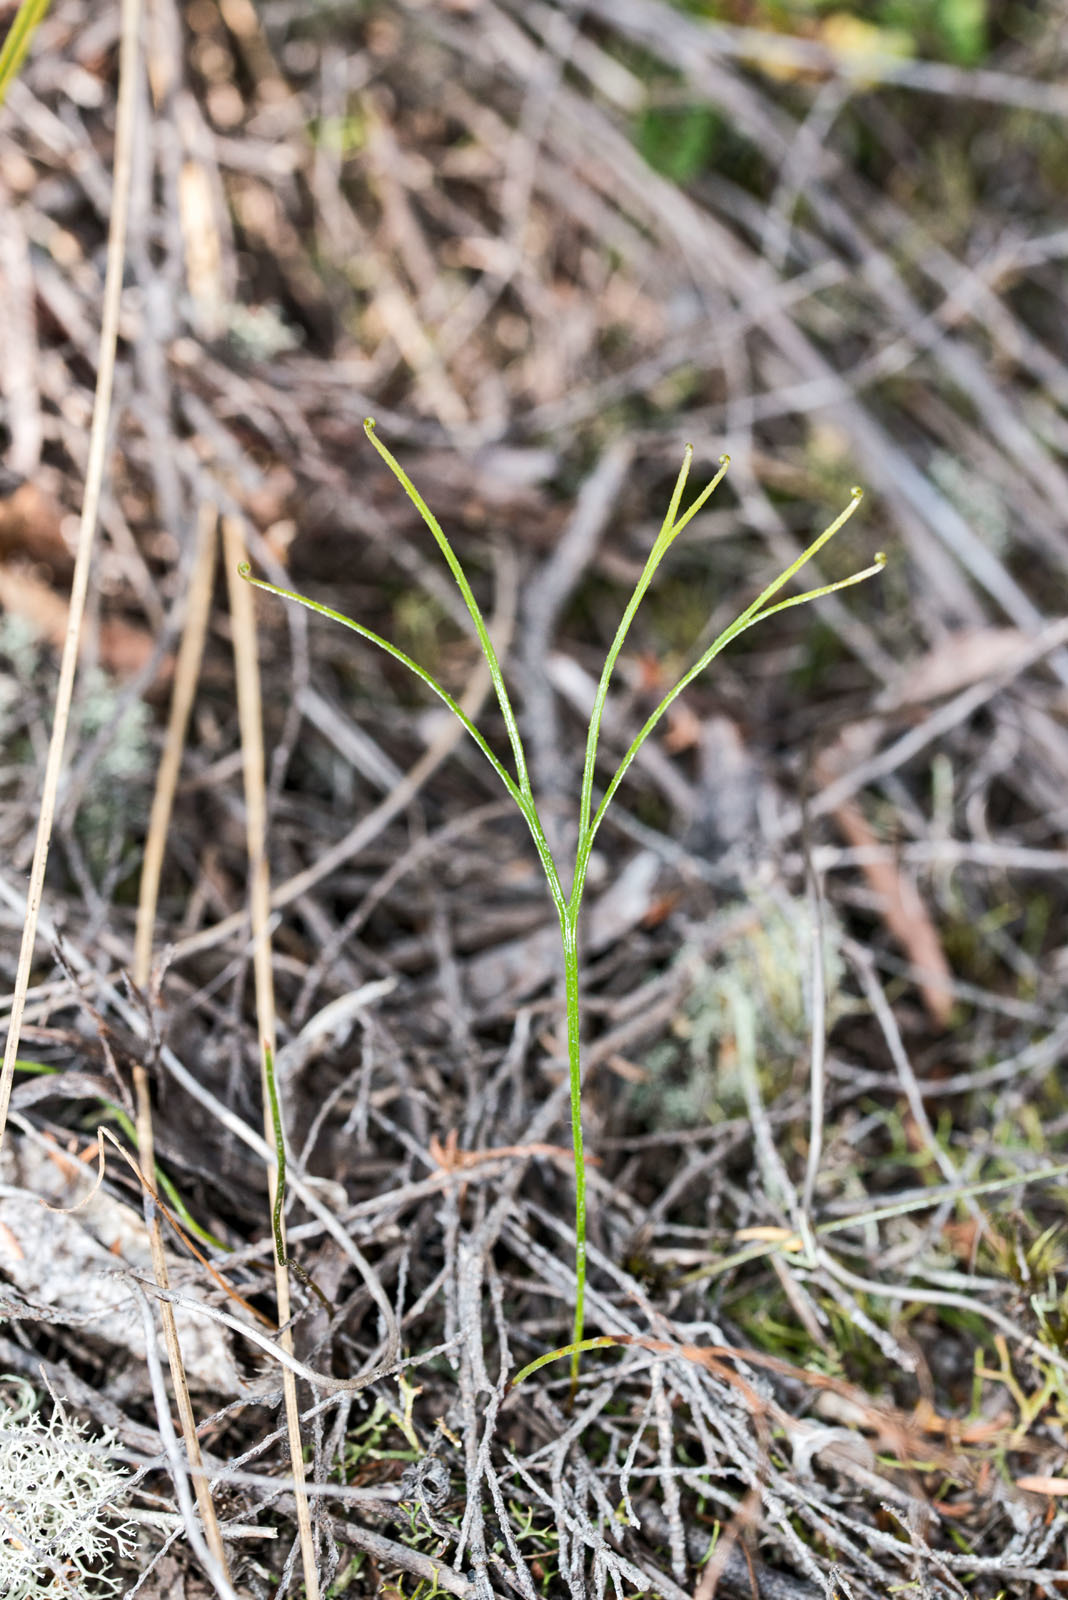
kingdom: Plantae
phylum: Tracheophyta
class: Polypodiopsida
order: Schizaeales
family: Schizaeaceae
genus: Schizaea
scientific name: Schizaea bifida
